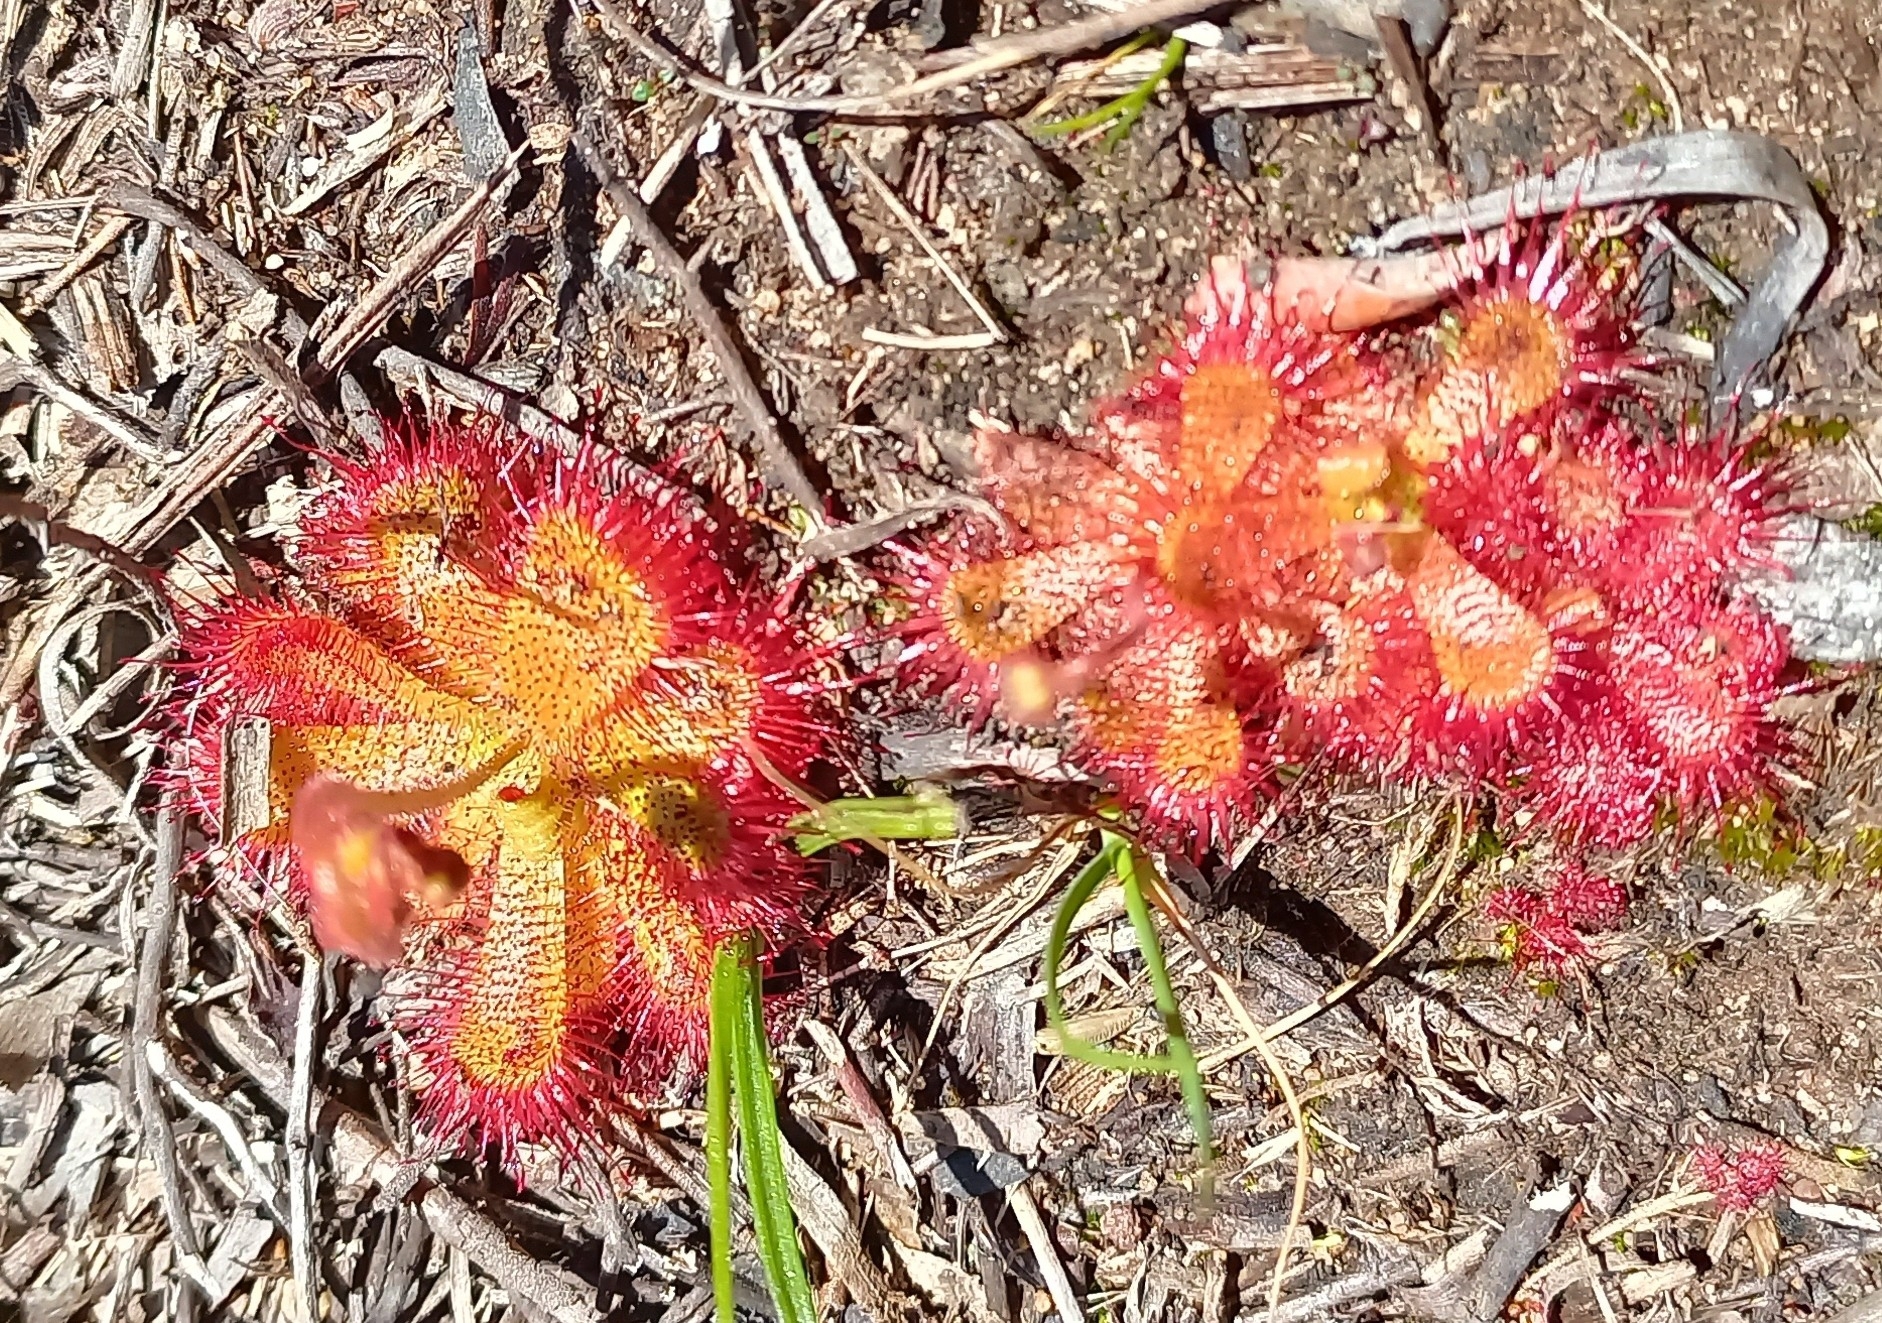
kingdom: Plantae
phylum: Tracheophyta
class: Magnoliopsida
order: Caryophyllales
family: Droseraceae
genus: Drosera
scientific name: Drosera trinervia
